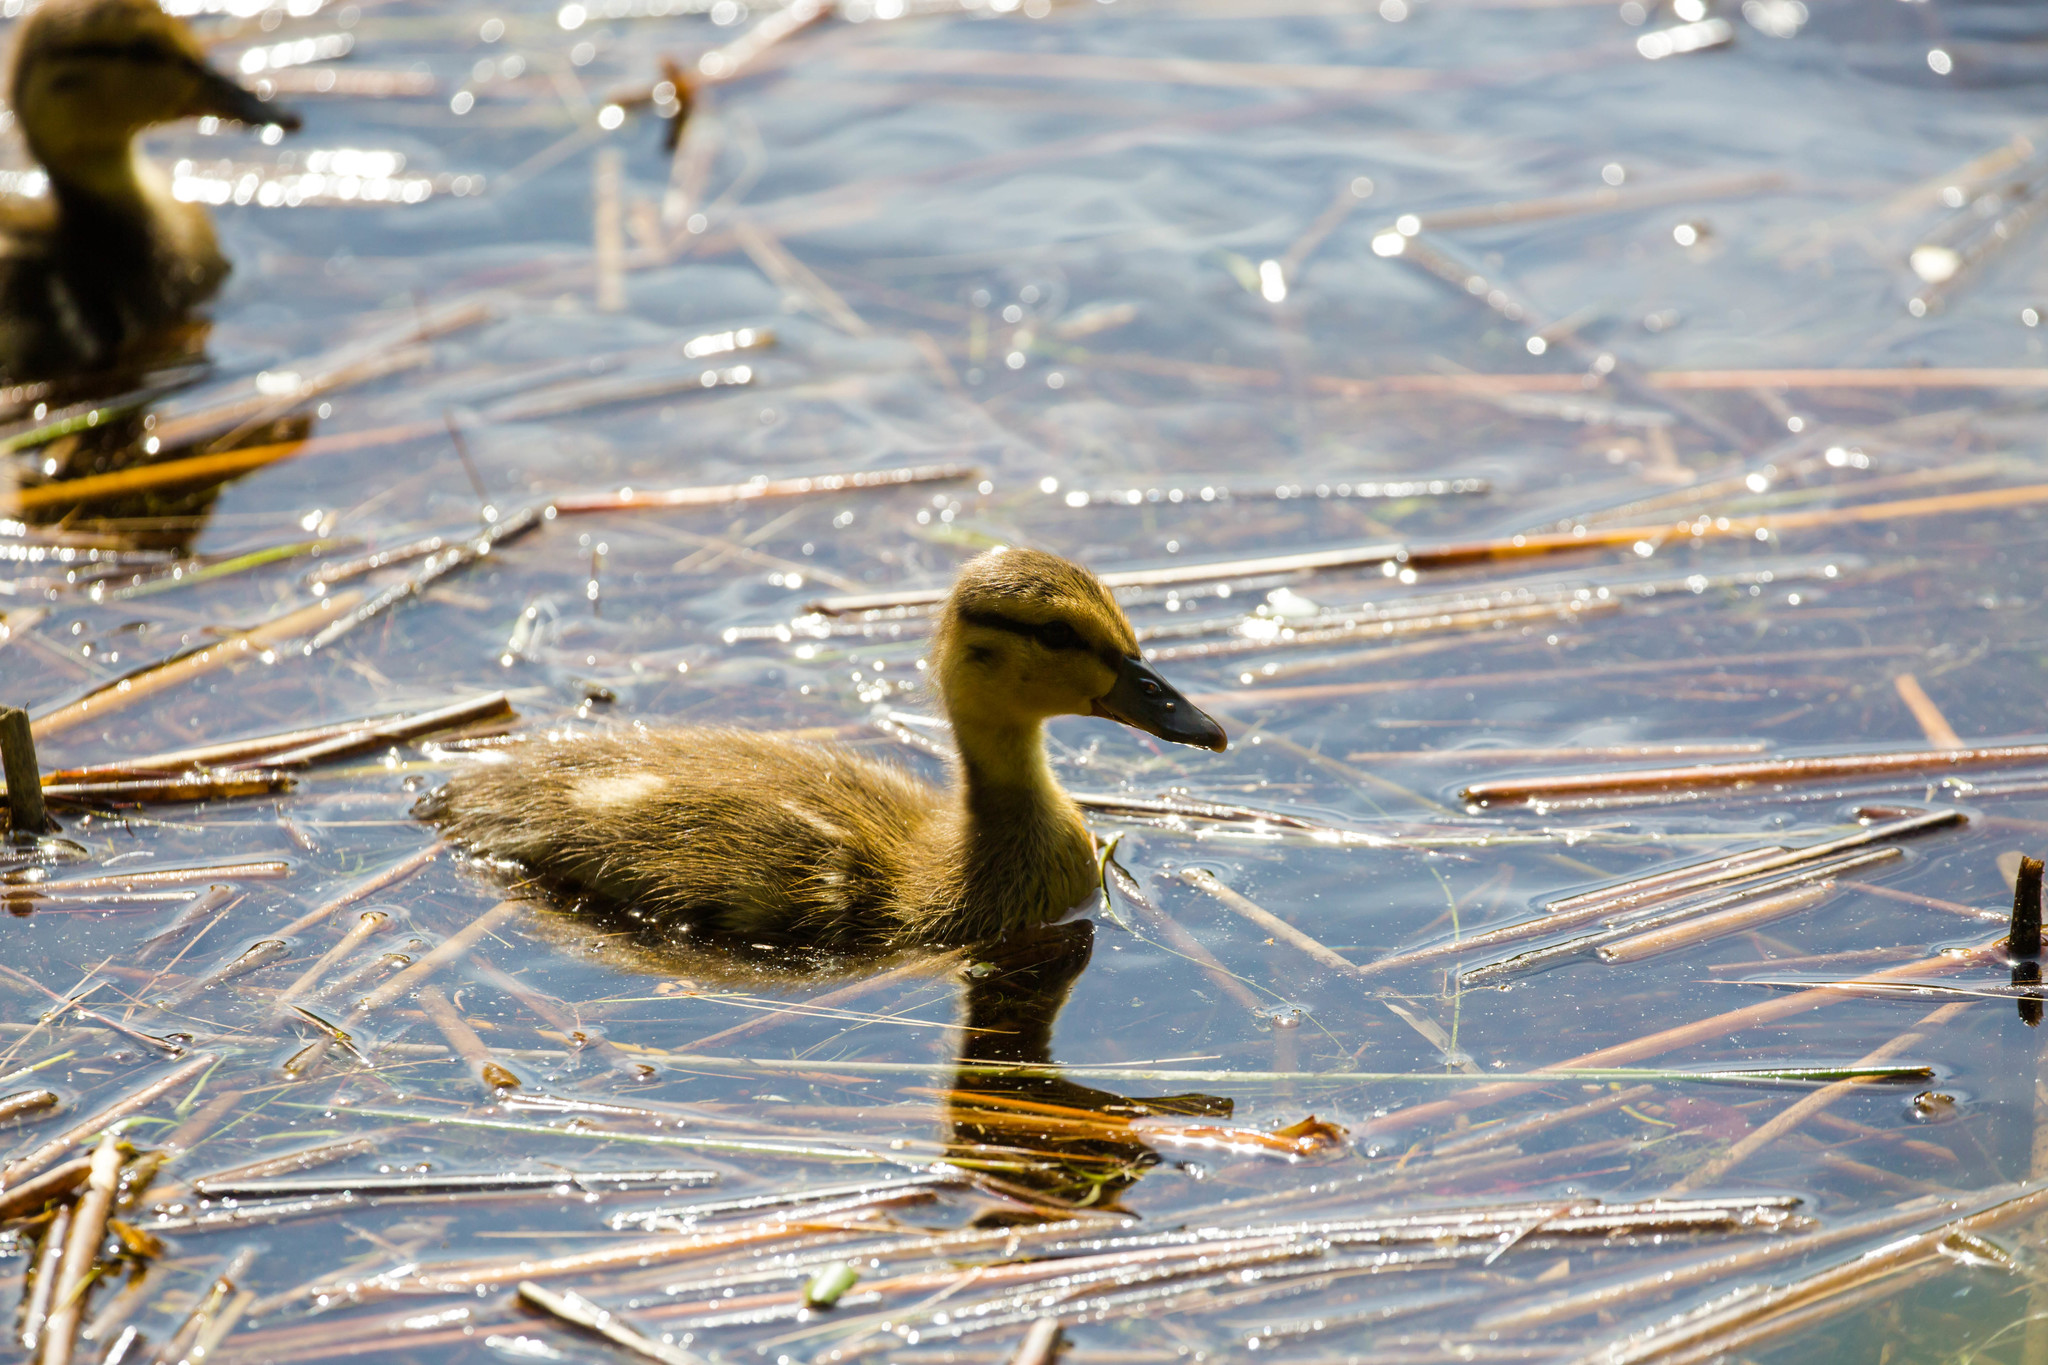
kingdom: Animalia
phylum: Chordata
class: Aves
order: Anseriformes
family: Anatidae
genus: Anas
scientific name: Anas platyrhynchos
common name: Mallard
